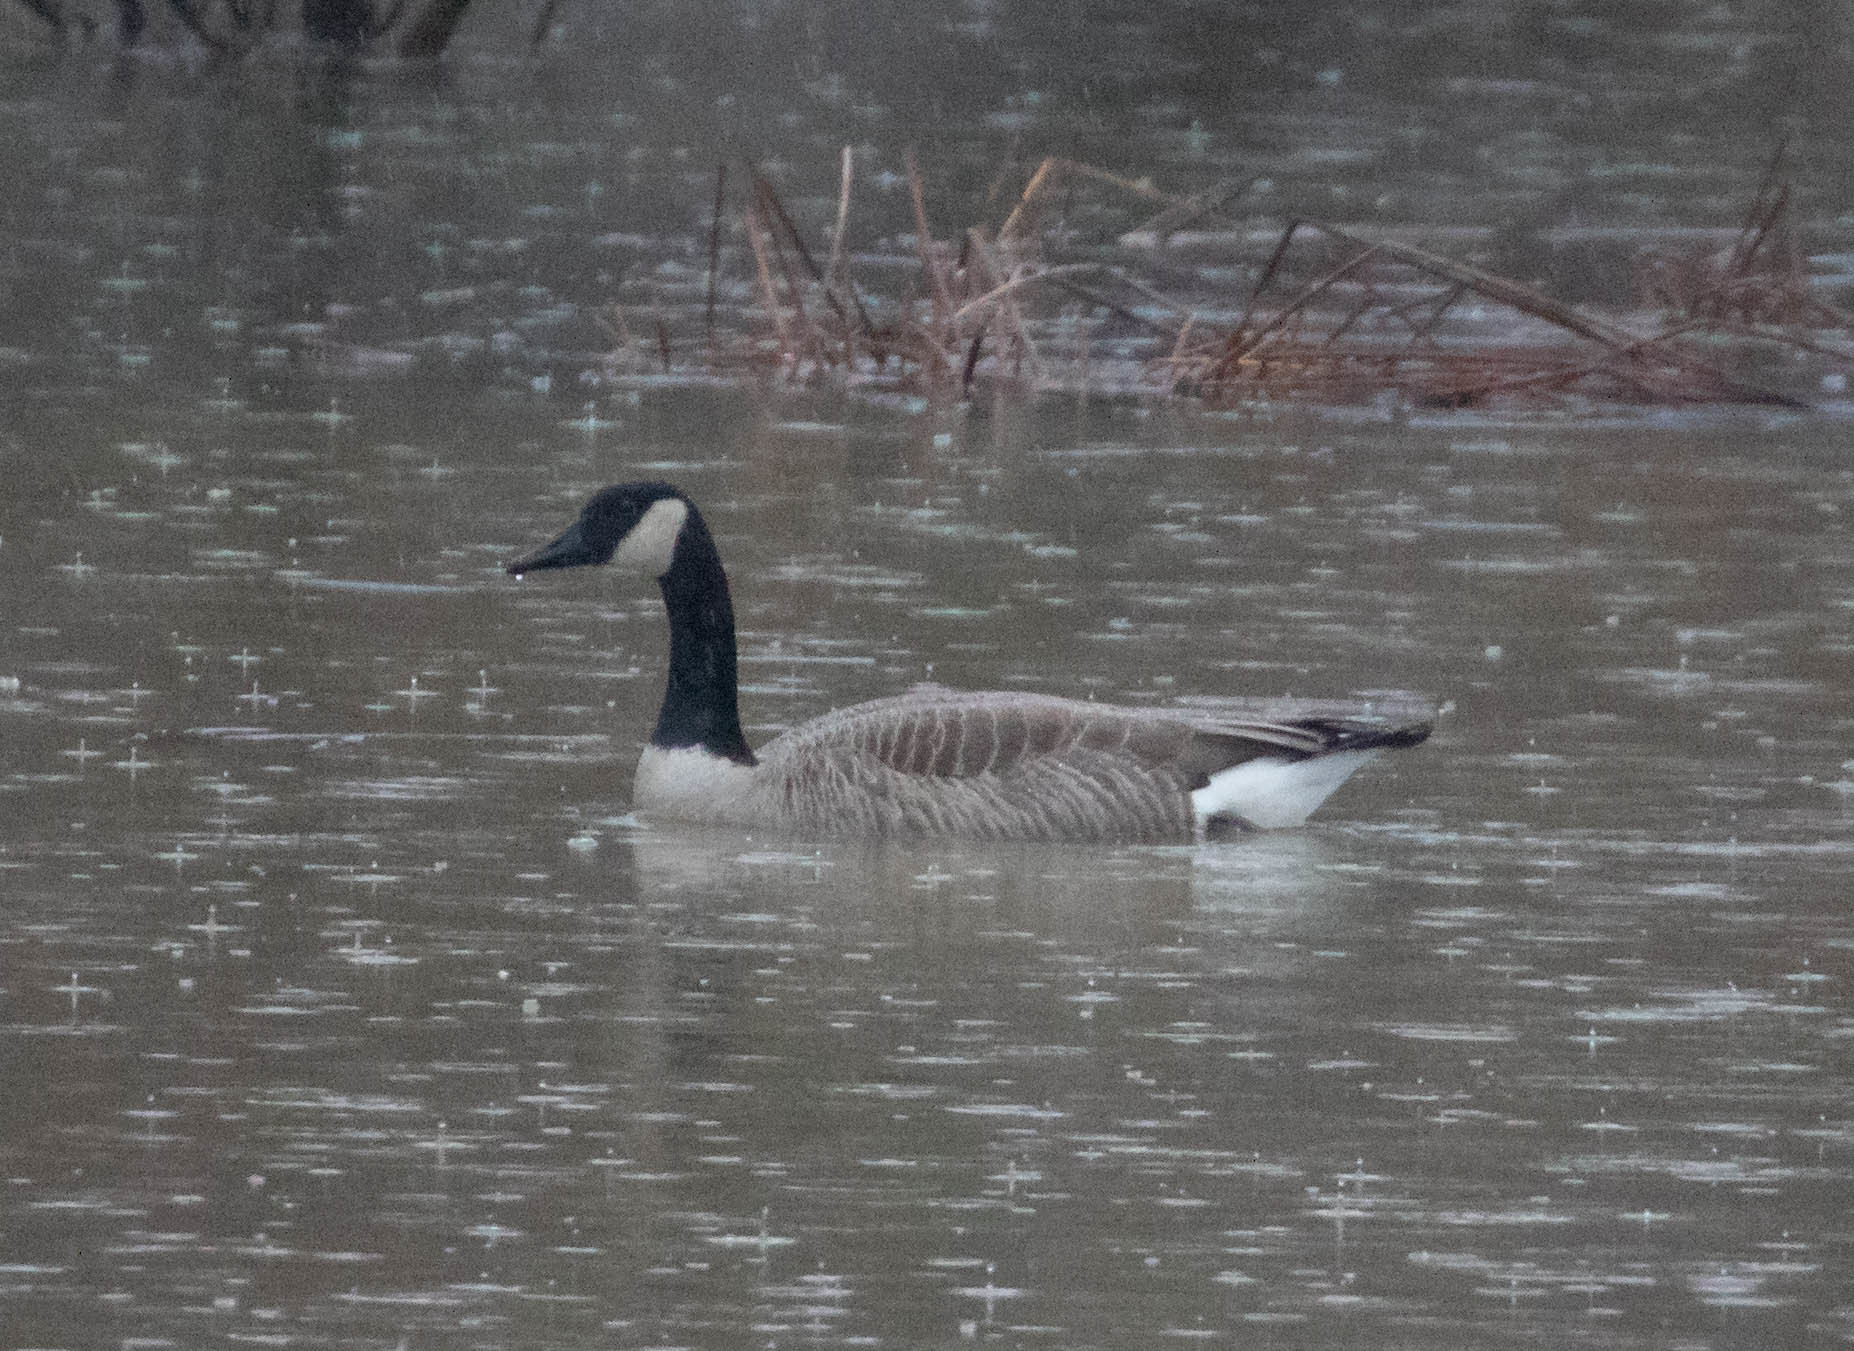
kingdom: Animalia
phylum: Chordata
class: Aves
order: Anseriformes
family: Anatidae
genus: Branta
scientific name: Branta canadensis
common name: Canada goose
